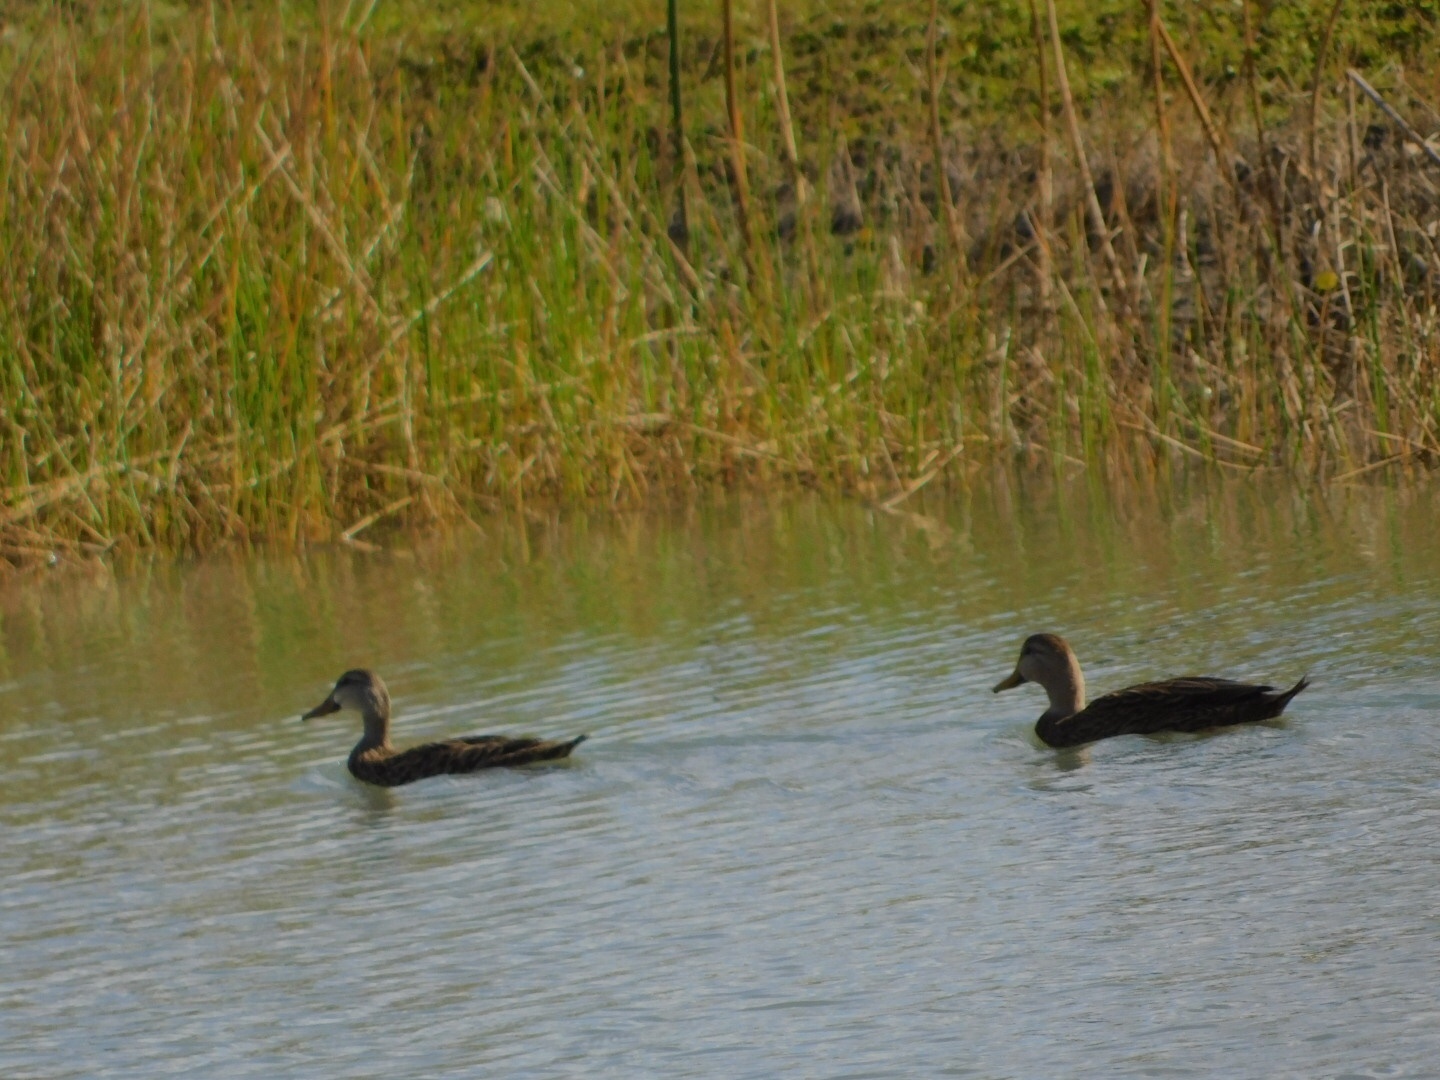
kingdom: Animalia
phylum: Chordata
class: Aves
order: Anseriformes
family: Anatidae
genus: Anas
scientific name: Anas fulvigula
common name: Mottled duck
